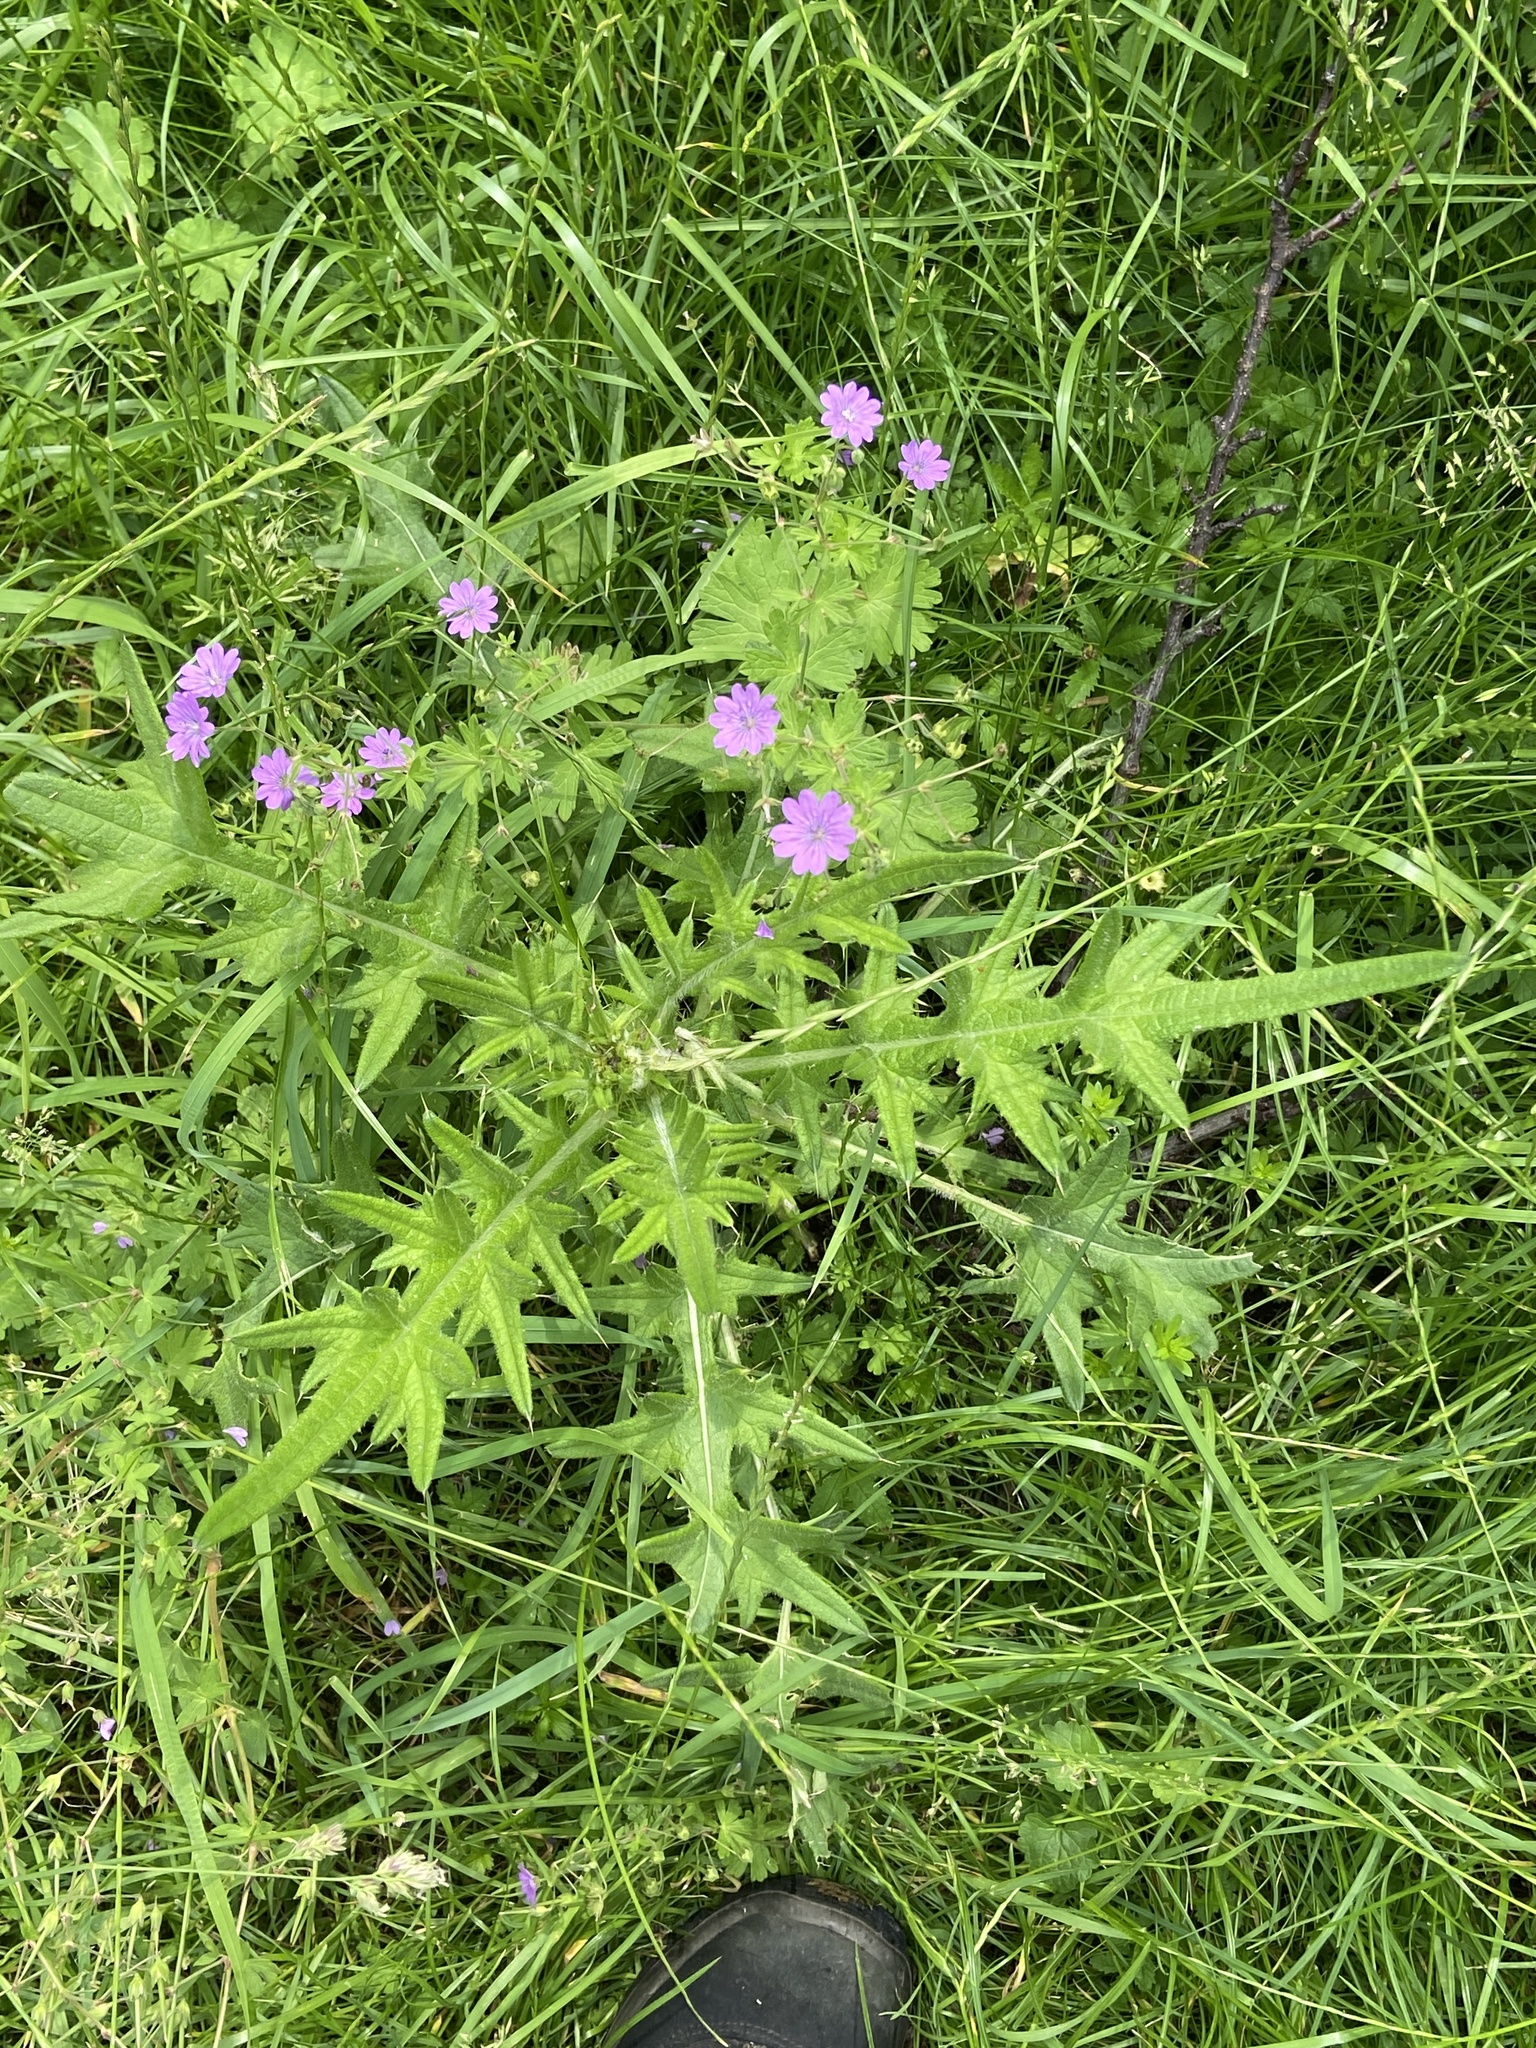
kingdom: Plantae
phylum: Tracheophyta
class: Magnoliopsida
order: Asterales
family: Asteraceae
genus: Cirsium
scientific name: Cirsium vulgare
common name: Bull thistle
